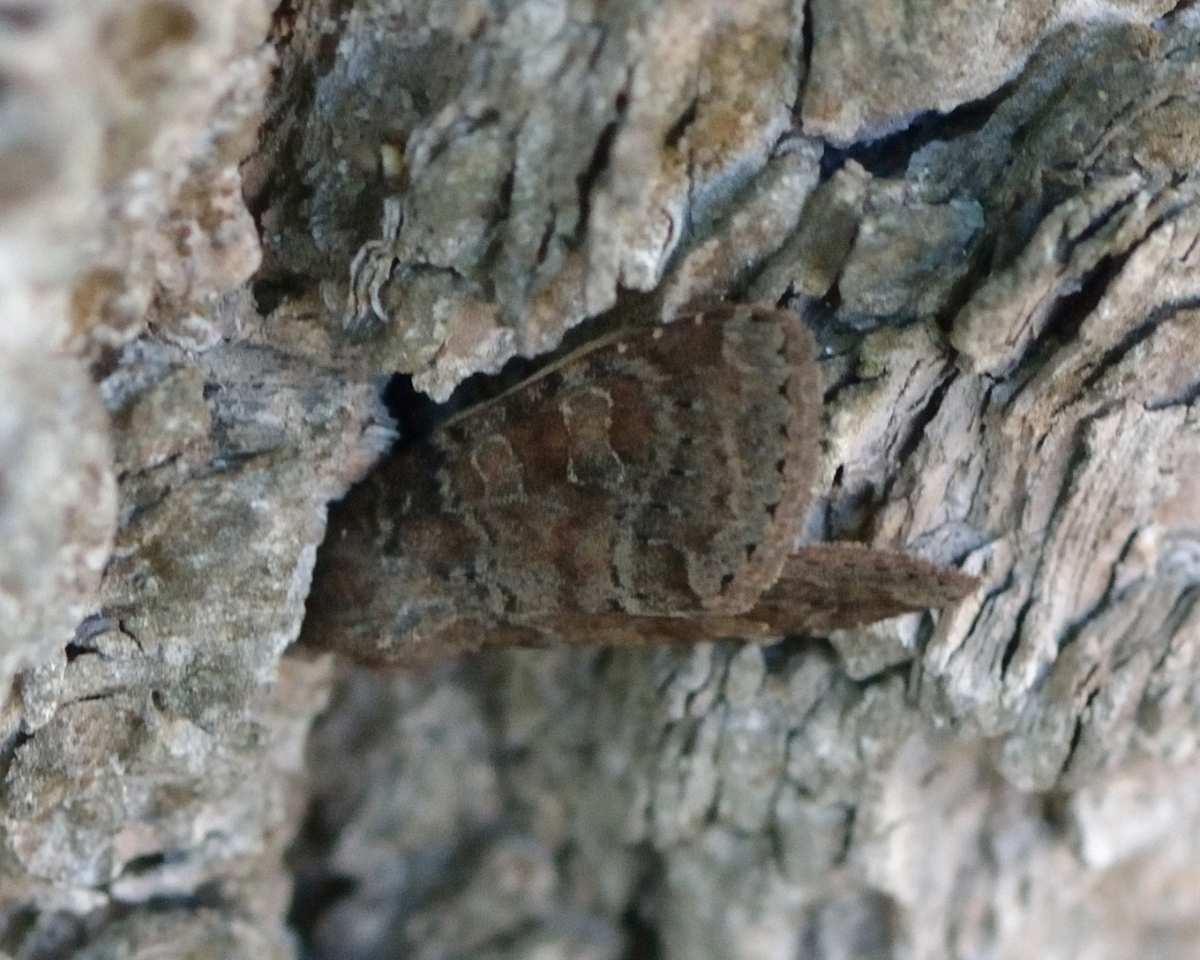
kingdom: Animalia
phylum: Arthropoda
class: Insecta
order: Lepidoptera
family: Noctuidae
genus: Parastichtis
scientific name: Parastichtis suspecta
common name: Suspected
